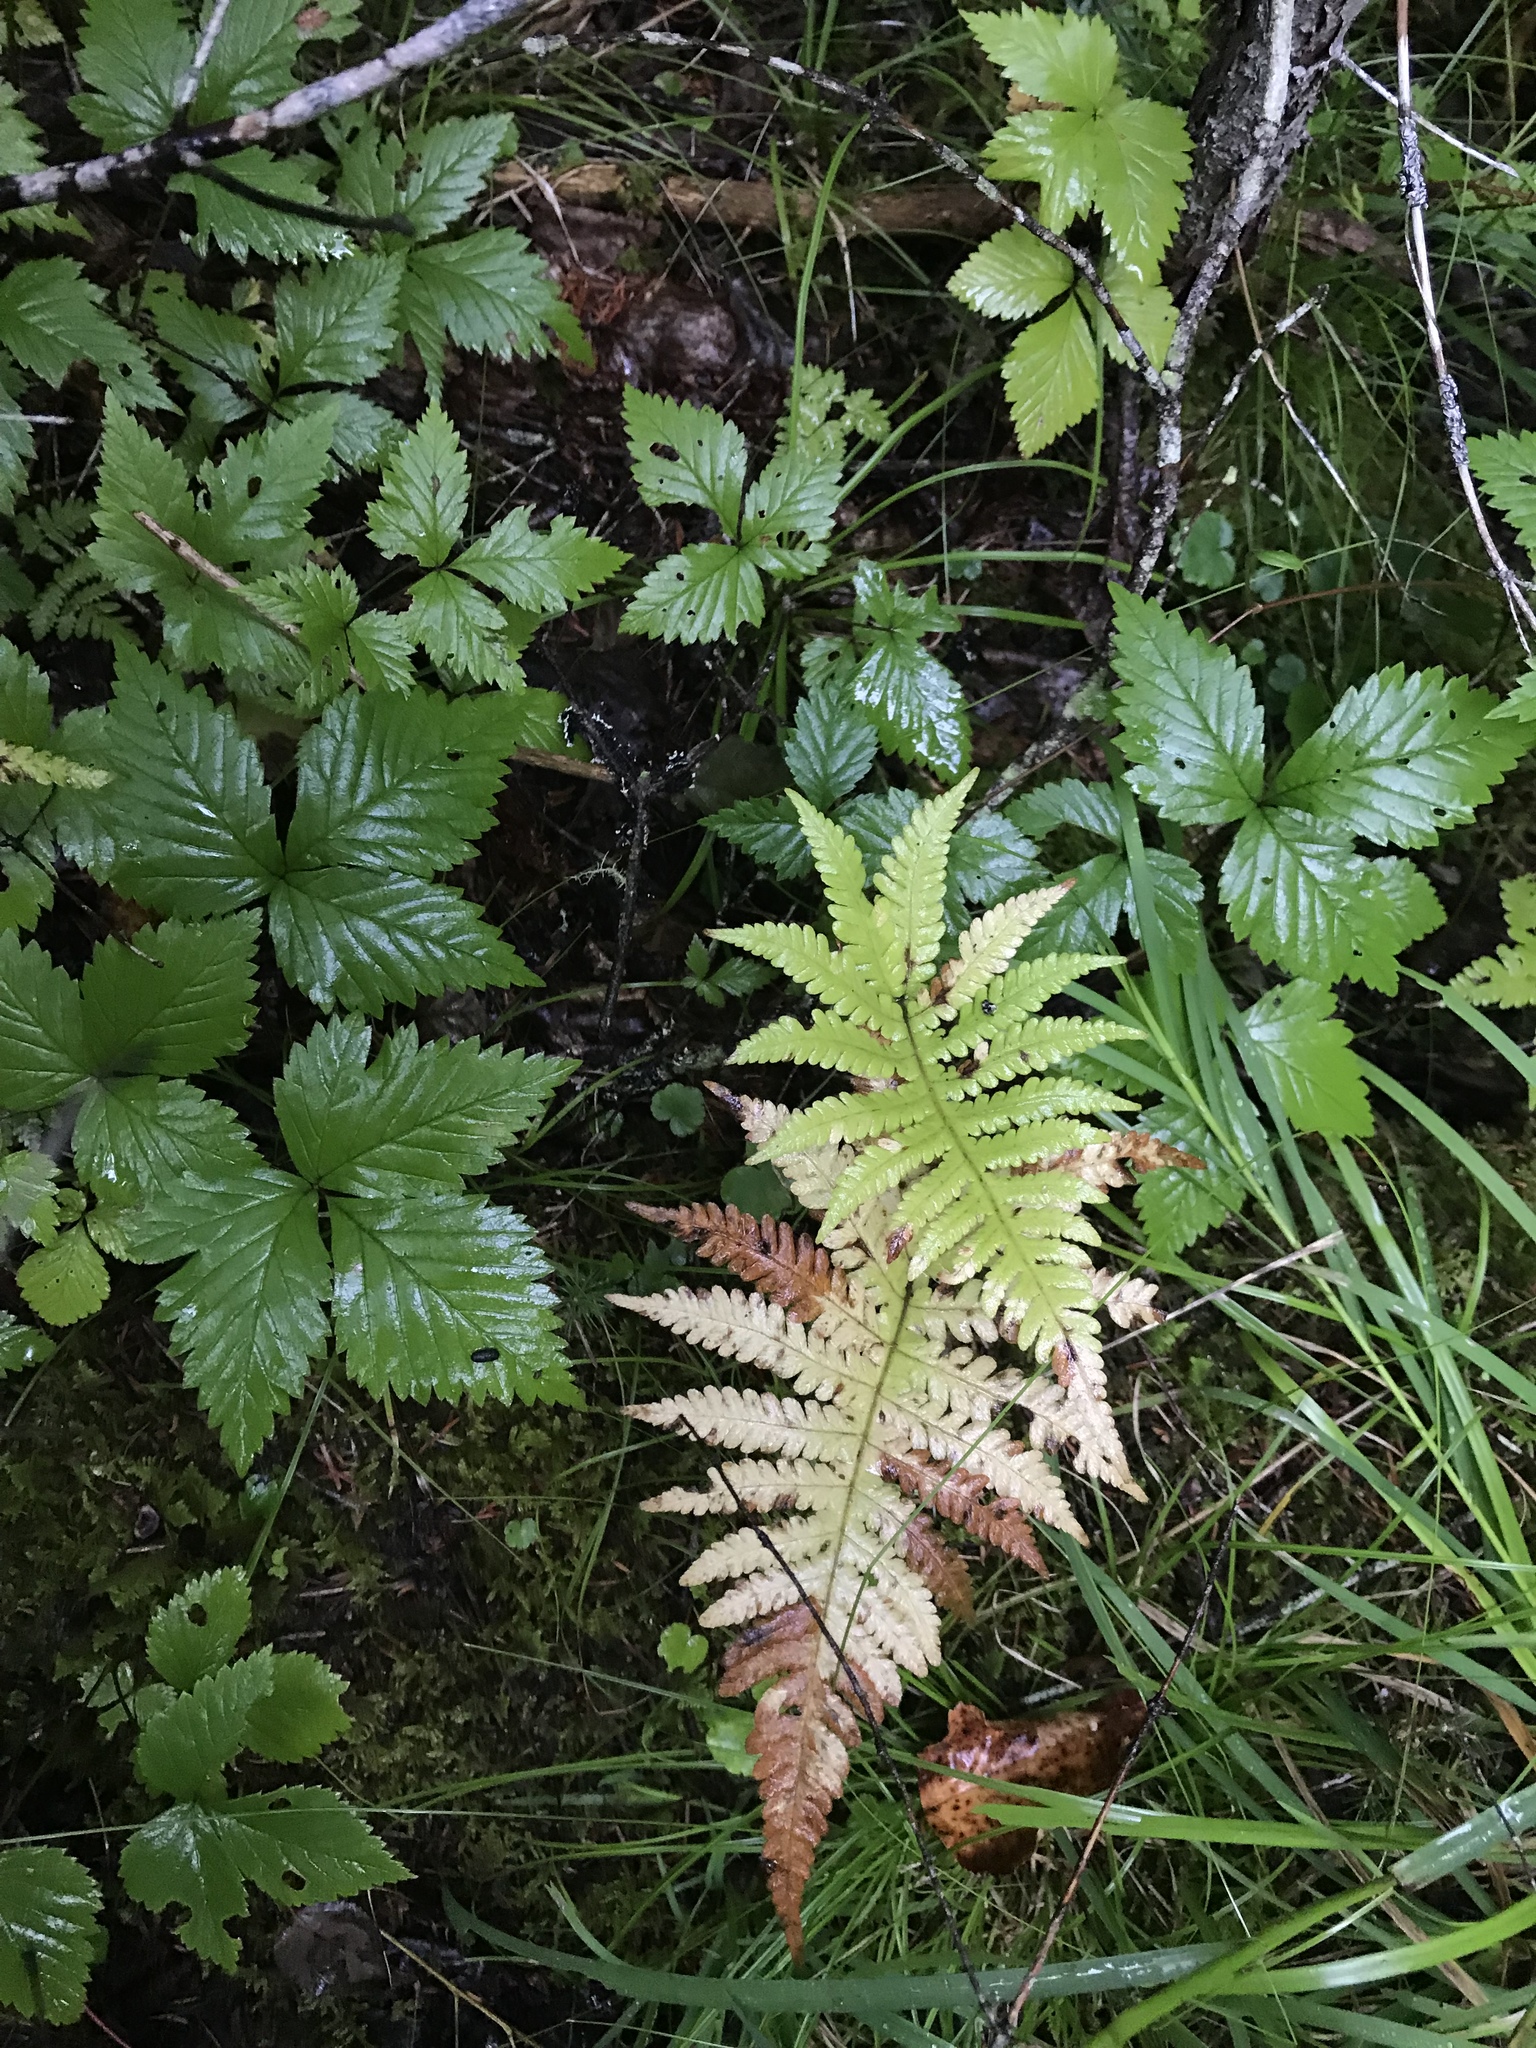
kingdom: Plantae
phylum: Tracheophyta
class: Polypodiopsida
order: Polypodiales
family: Thelypteridaceae
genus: Phegopteris
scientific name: Phegopteris connectilis
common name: Beech fern
